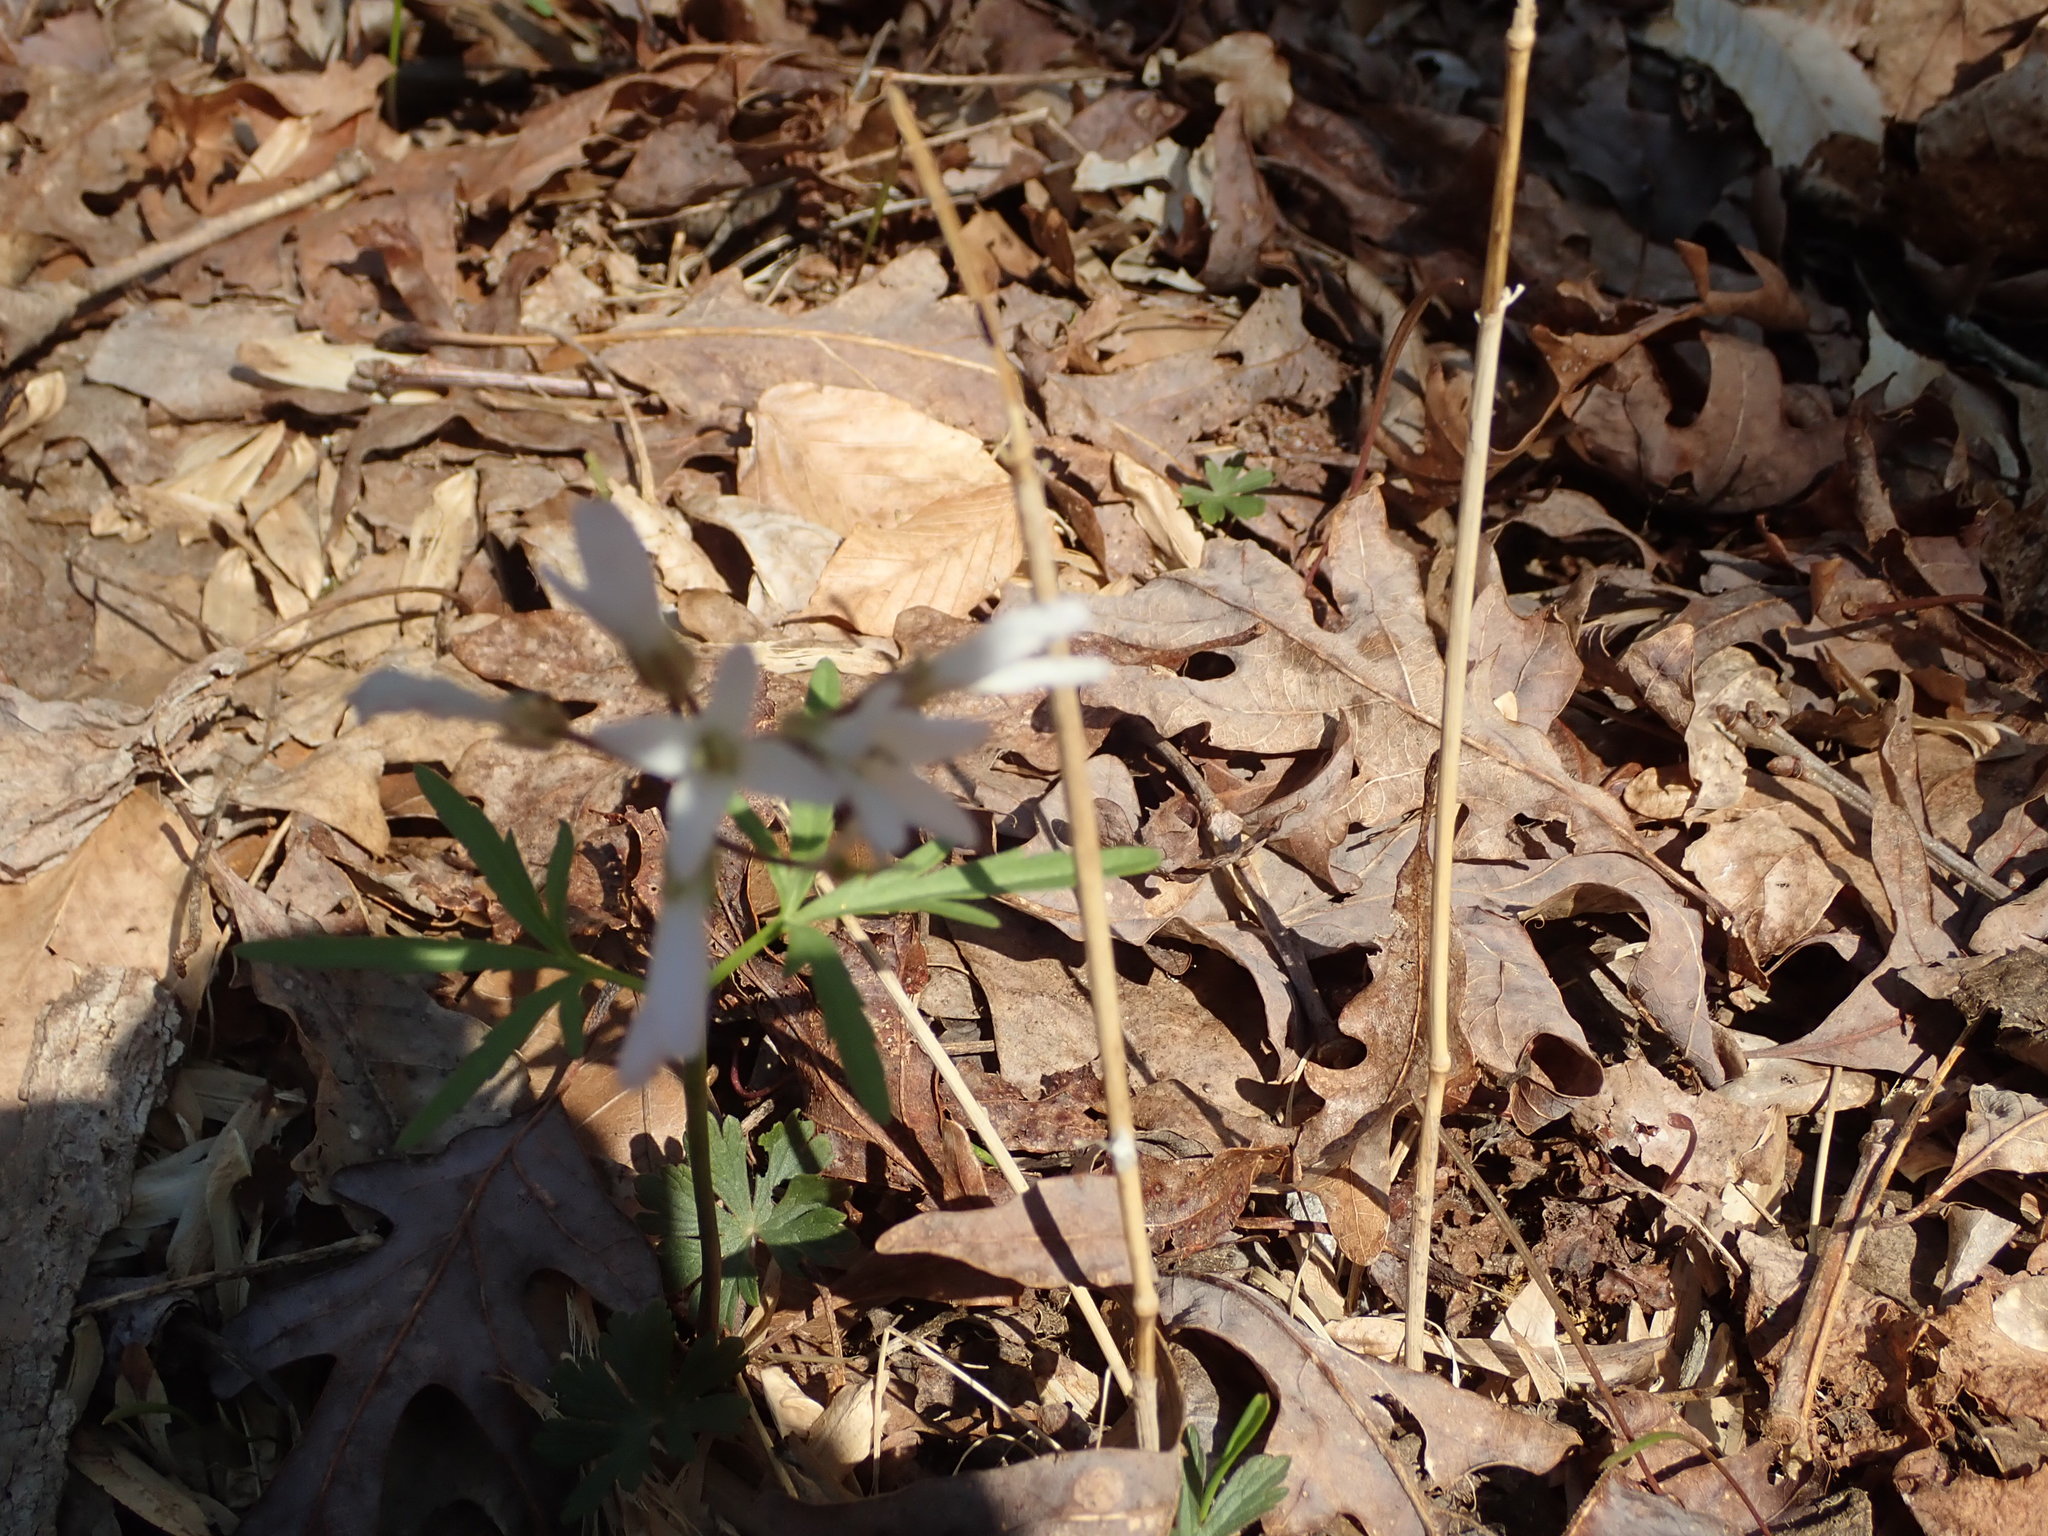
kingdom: Plantae
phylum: Tracheophyta
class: Magnoliopsida
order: Brassicales
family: Brassicaceae
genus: Cardamine
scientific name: Cardamine concatenata
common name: Cut-leaf toothcup
